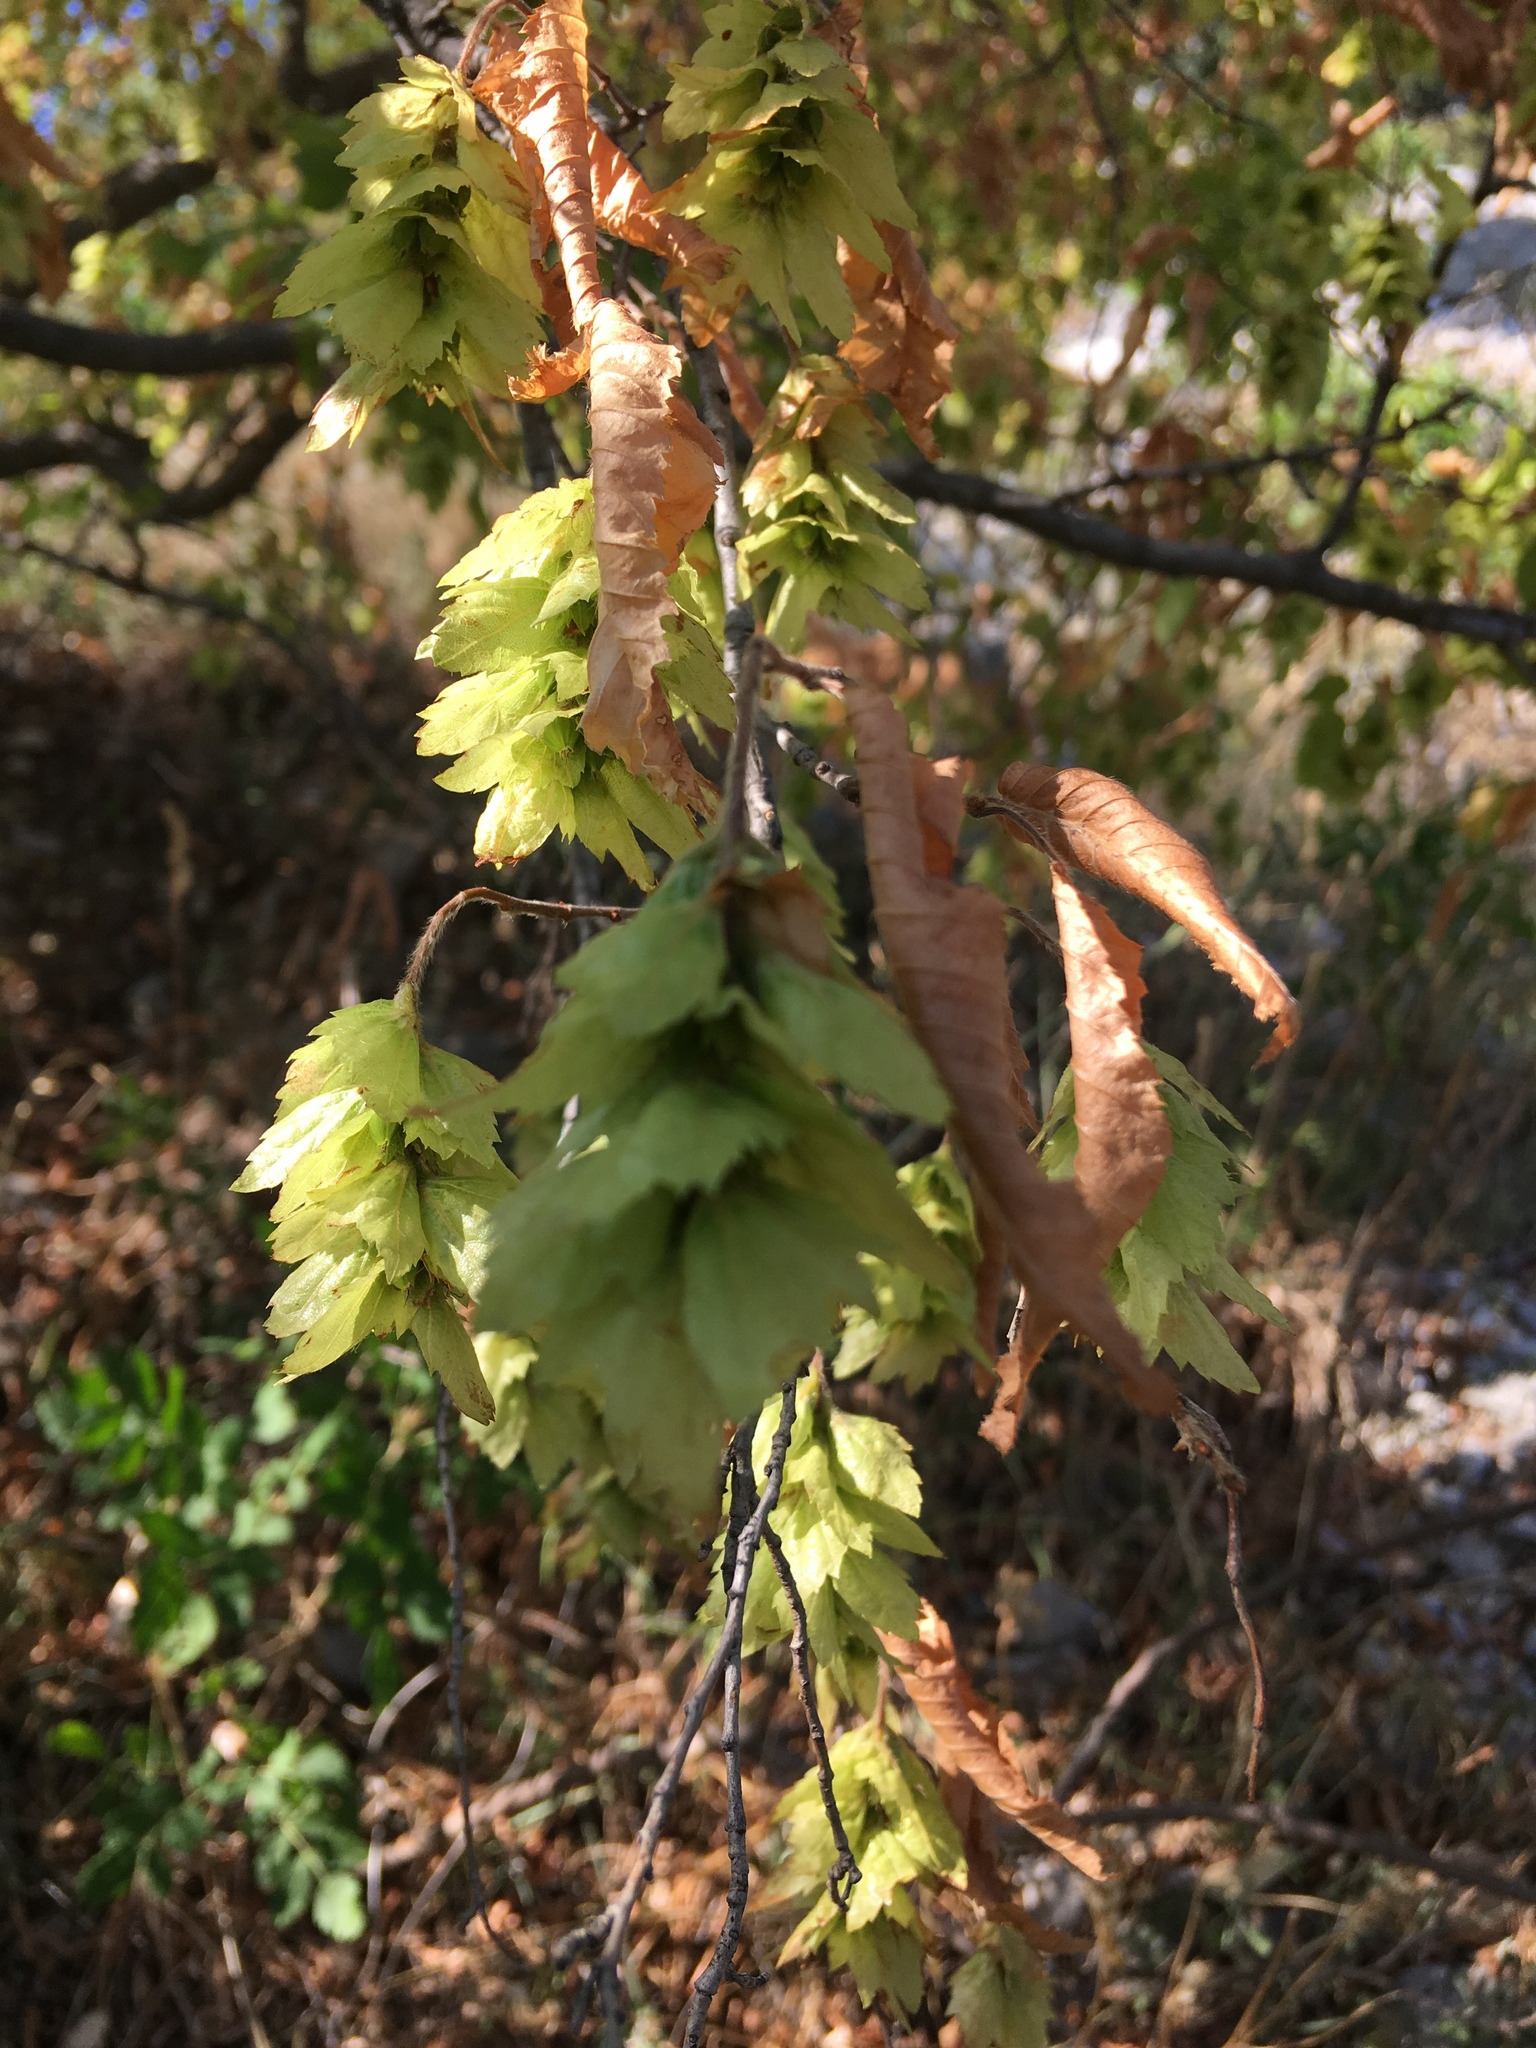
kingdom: Plantae
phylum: Tracheophyta
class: Magnoliopsida
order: Fagales
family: Betulaceae
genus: Carpinus
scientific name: Carpinus orientalis
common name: Eastern hornbeam
